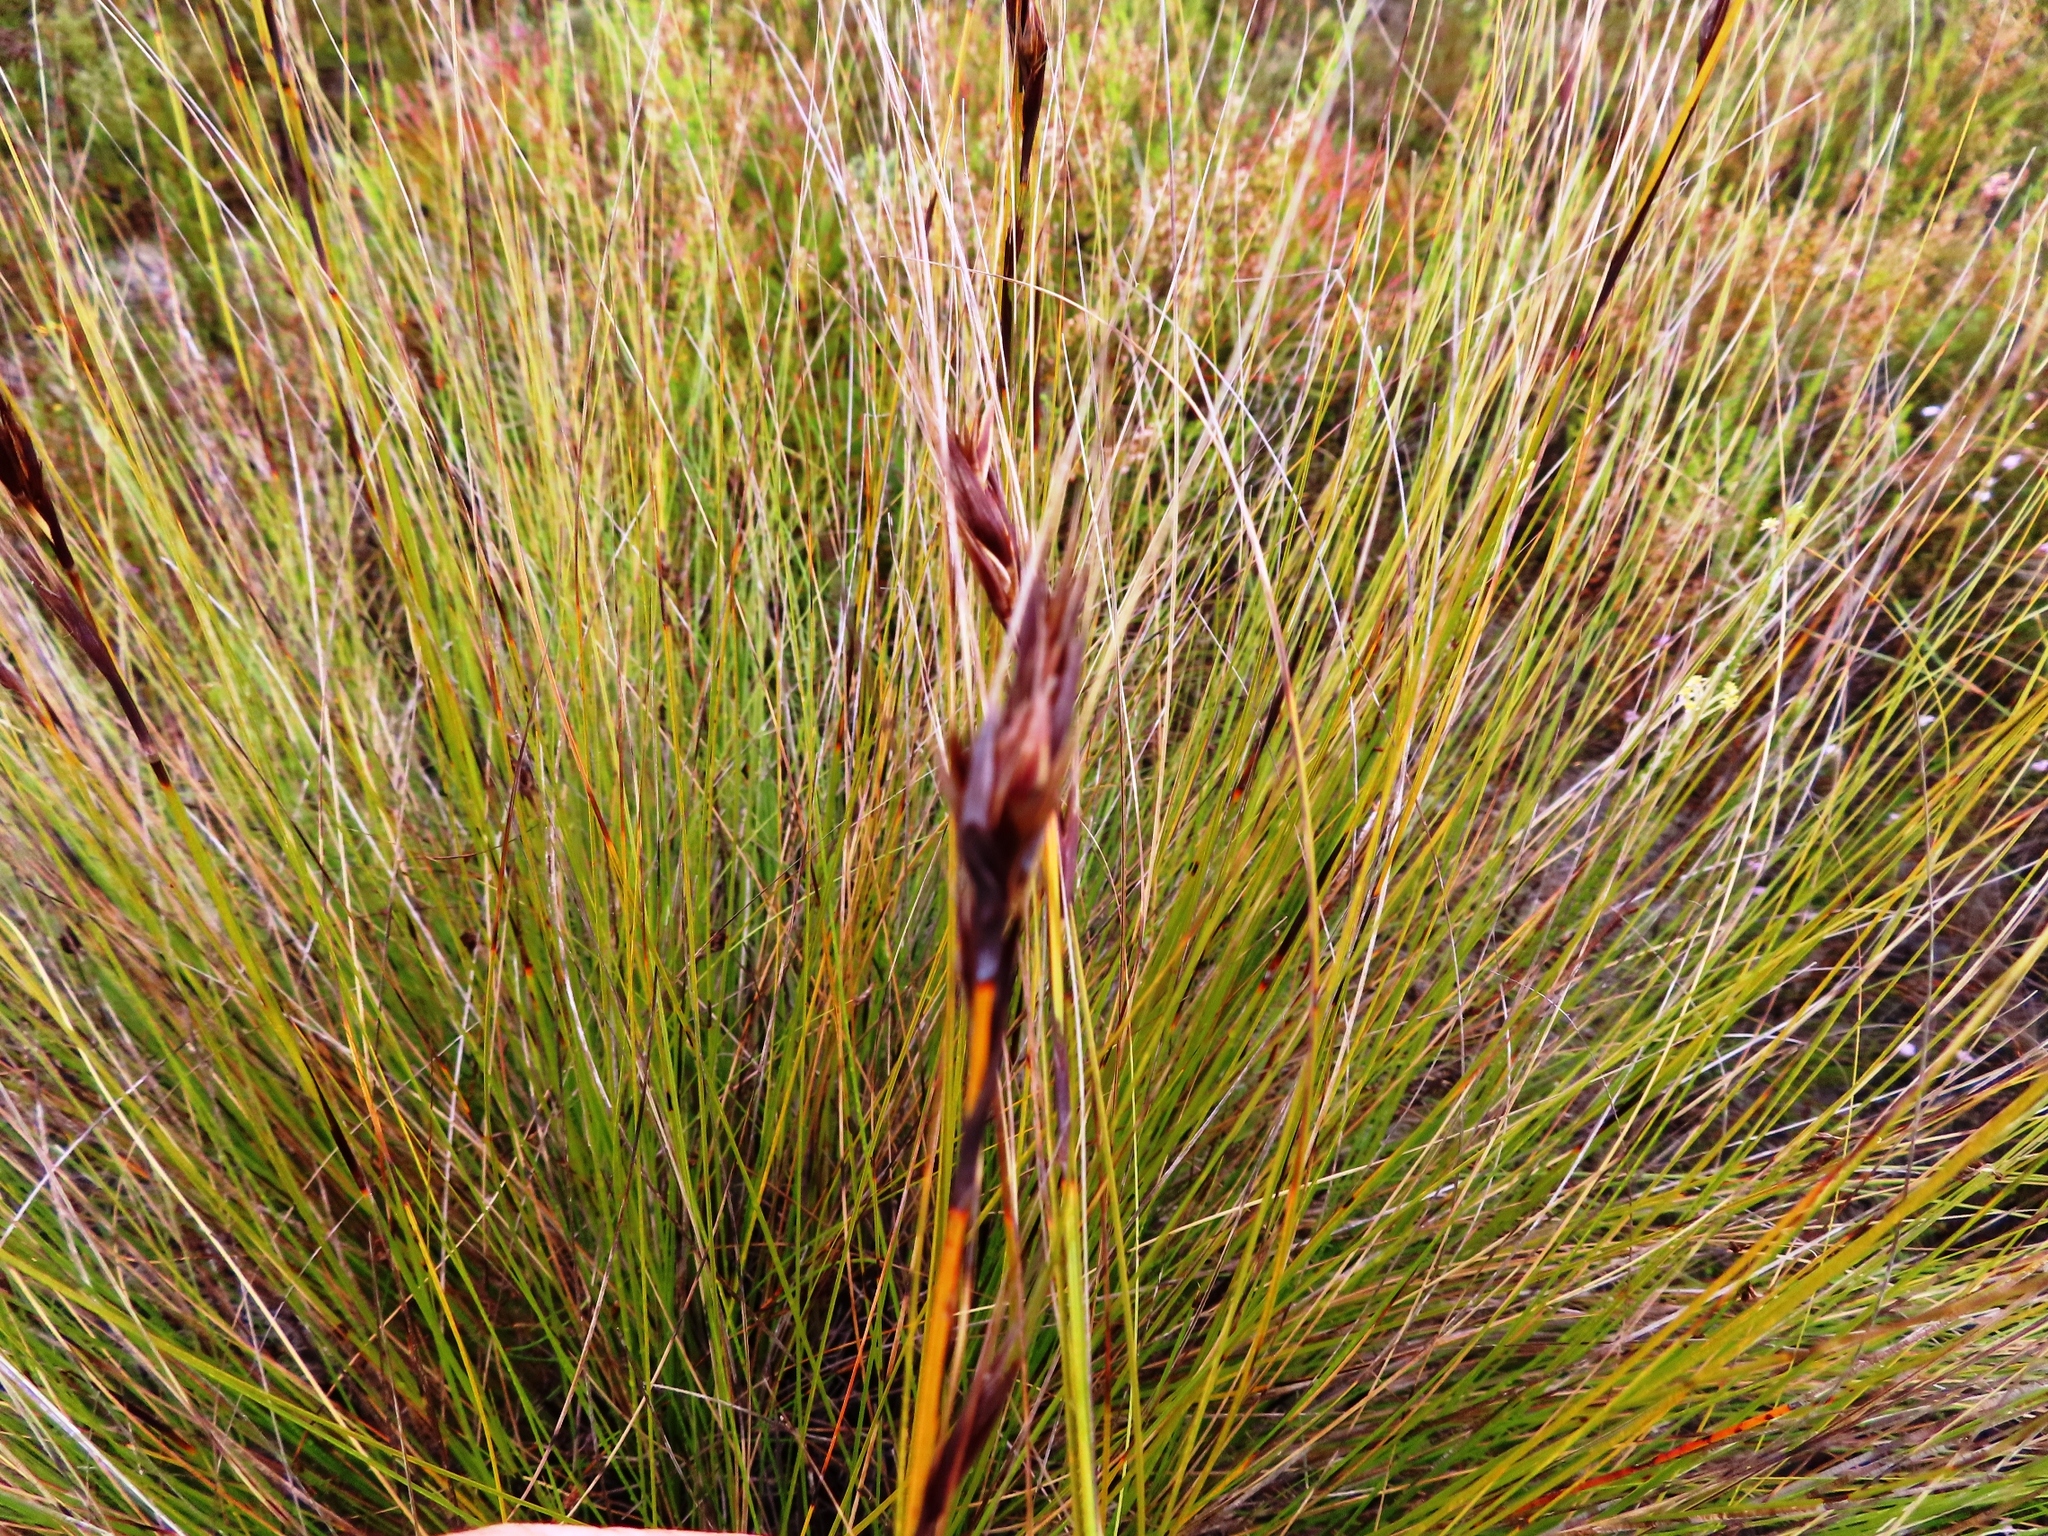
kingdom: Plantae
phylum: Tracheophyta
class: Liliopsida
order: Poales
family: Cyperaceae
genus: Tetraria
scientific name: Tetraria ustulata
